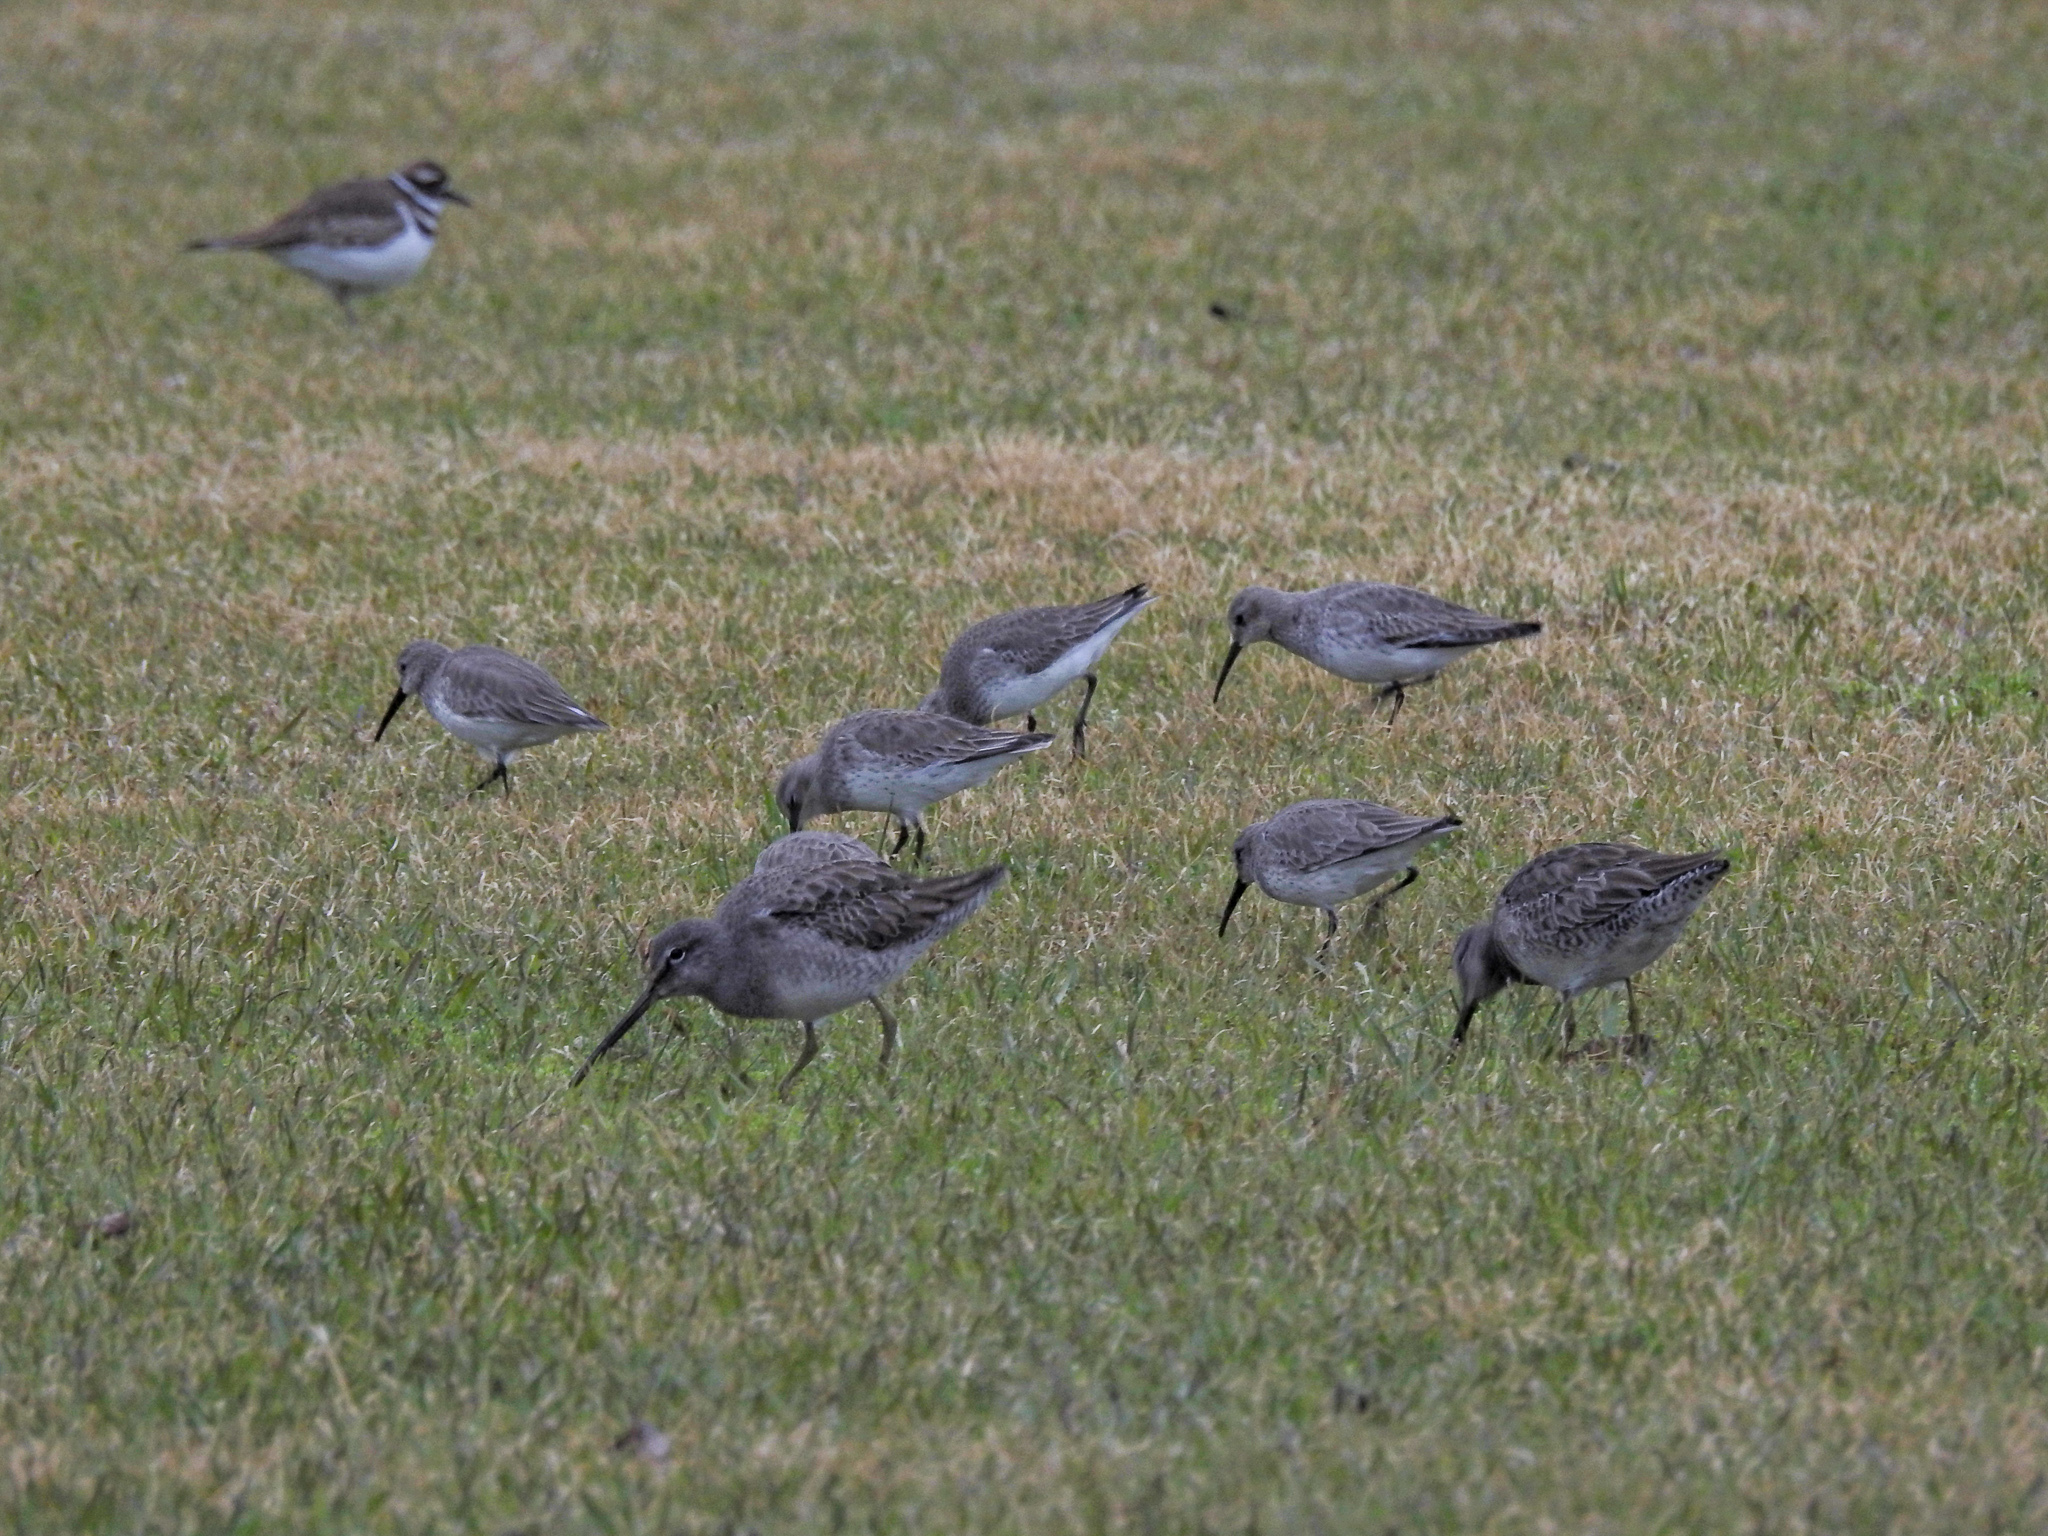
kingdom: Animalia
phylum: Chordata
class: Aves
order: Charadriiformes
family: Scolopacidae
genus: Calidris
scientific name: Calidris alpina
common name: Dunlin
